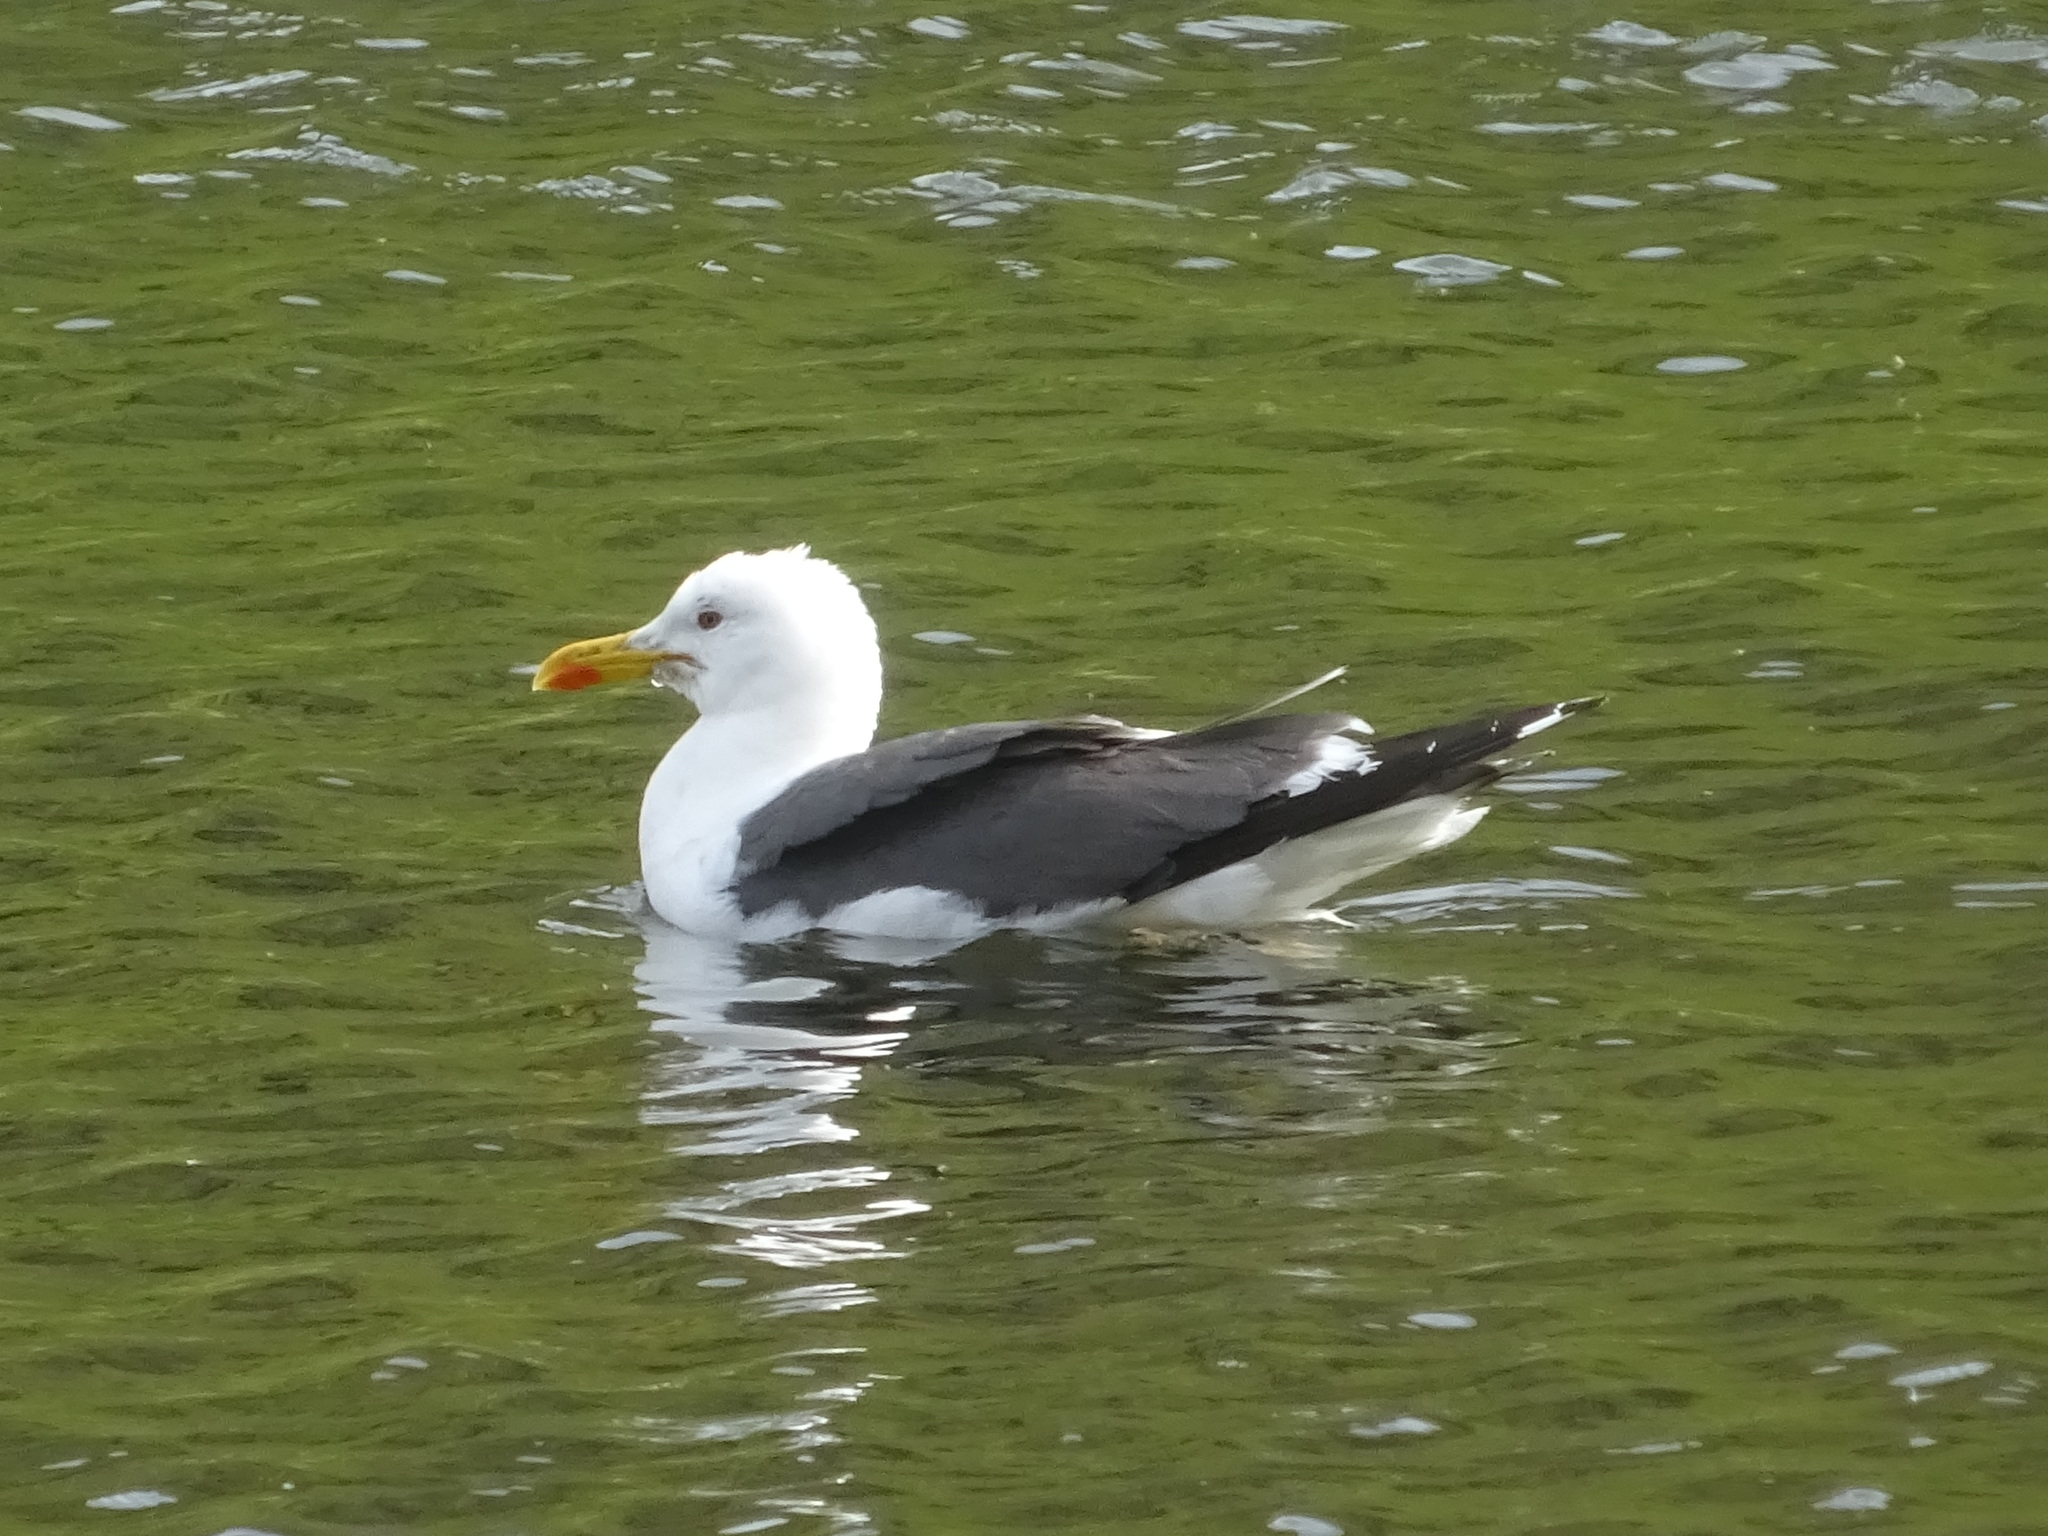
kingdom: Animalia
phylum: Chordata
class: Aves
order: Charadriiformes
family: Laridae
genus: Larus
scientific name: Larus fuscus
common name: Lesser black-backed gull
